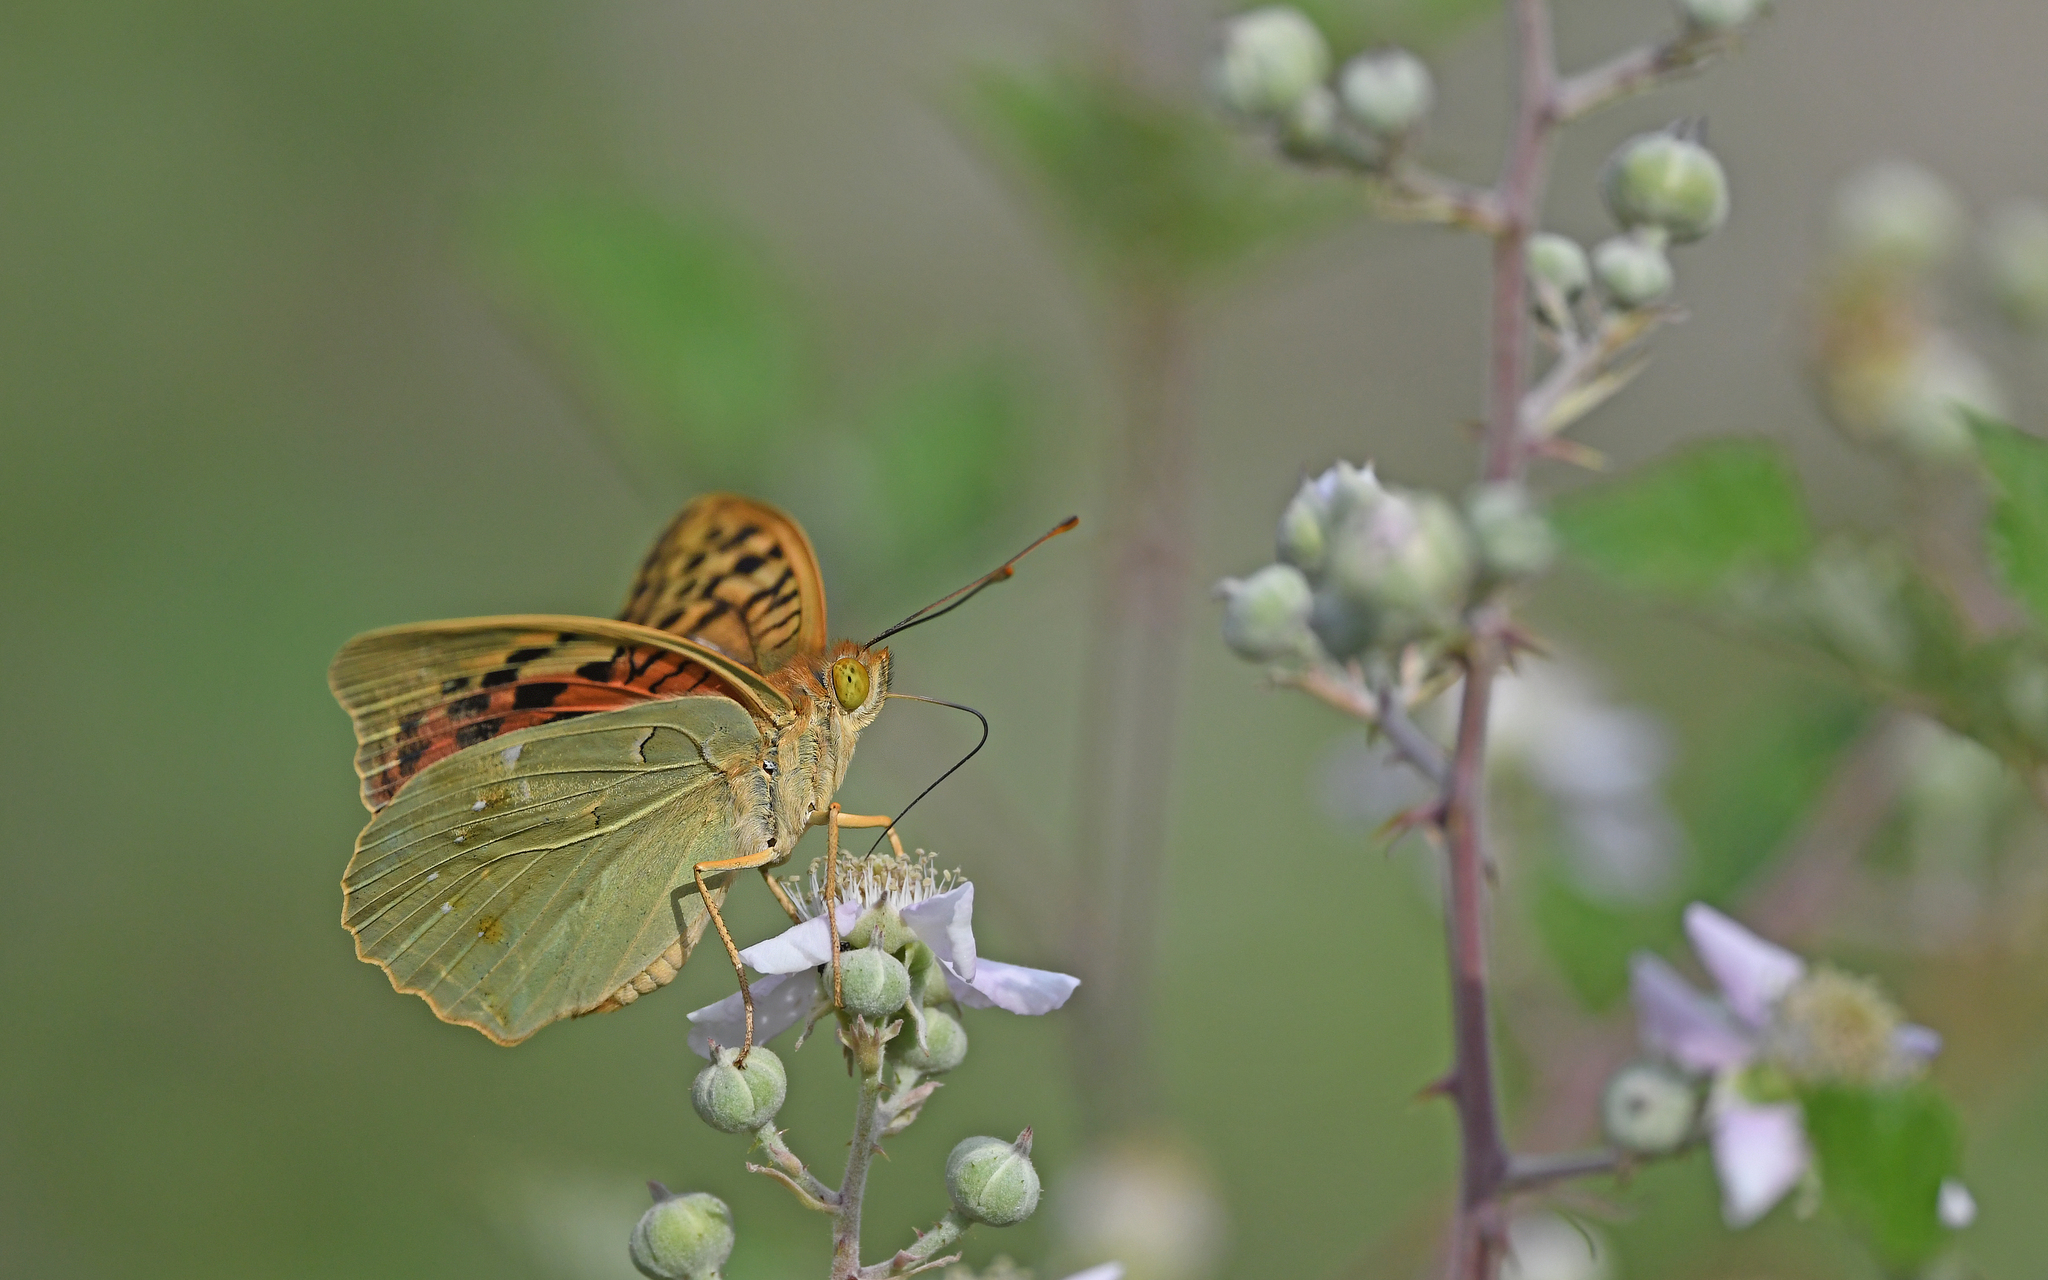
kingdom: Animalia
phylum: Arthropoda
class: Insecta
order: Lepidoptera
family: Nymphalidae
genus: Damora
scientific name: Damora pandora
